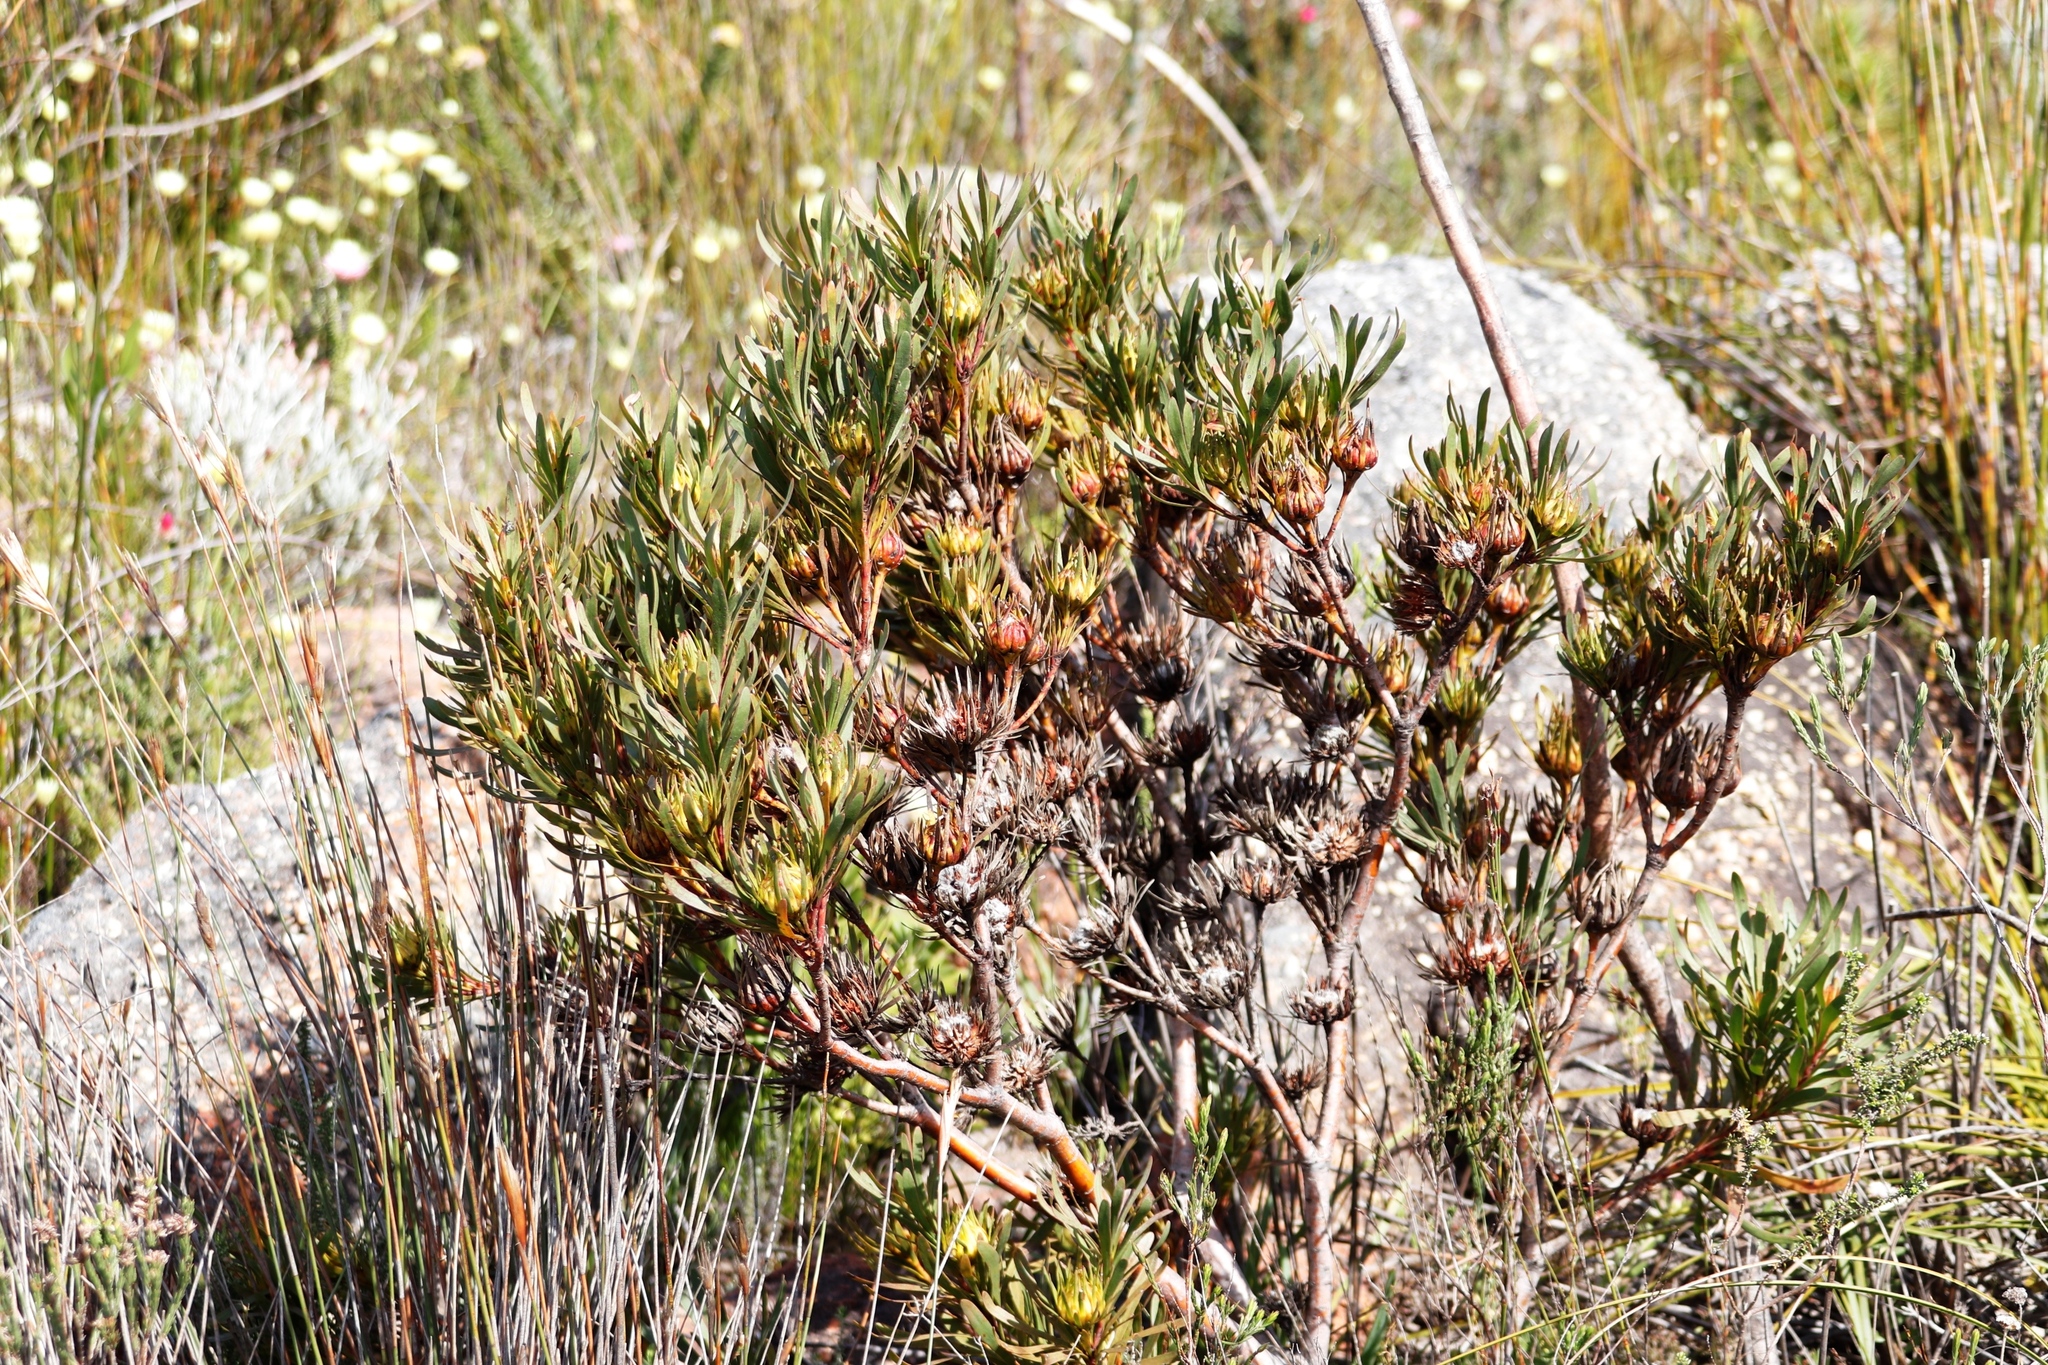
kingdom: Plantae
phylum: Tracheophyta
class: Magnoliopsida
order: Proteales
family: Proteaceae
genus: Aulax
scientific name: Aulax umbellata
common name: Broad-leaf featherbush
